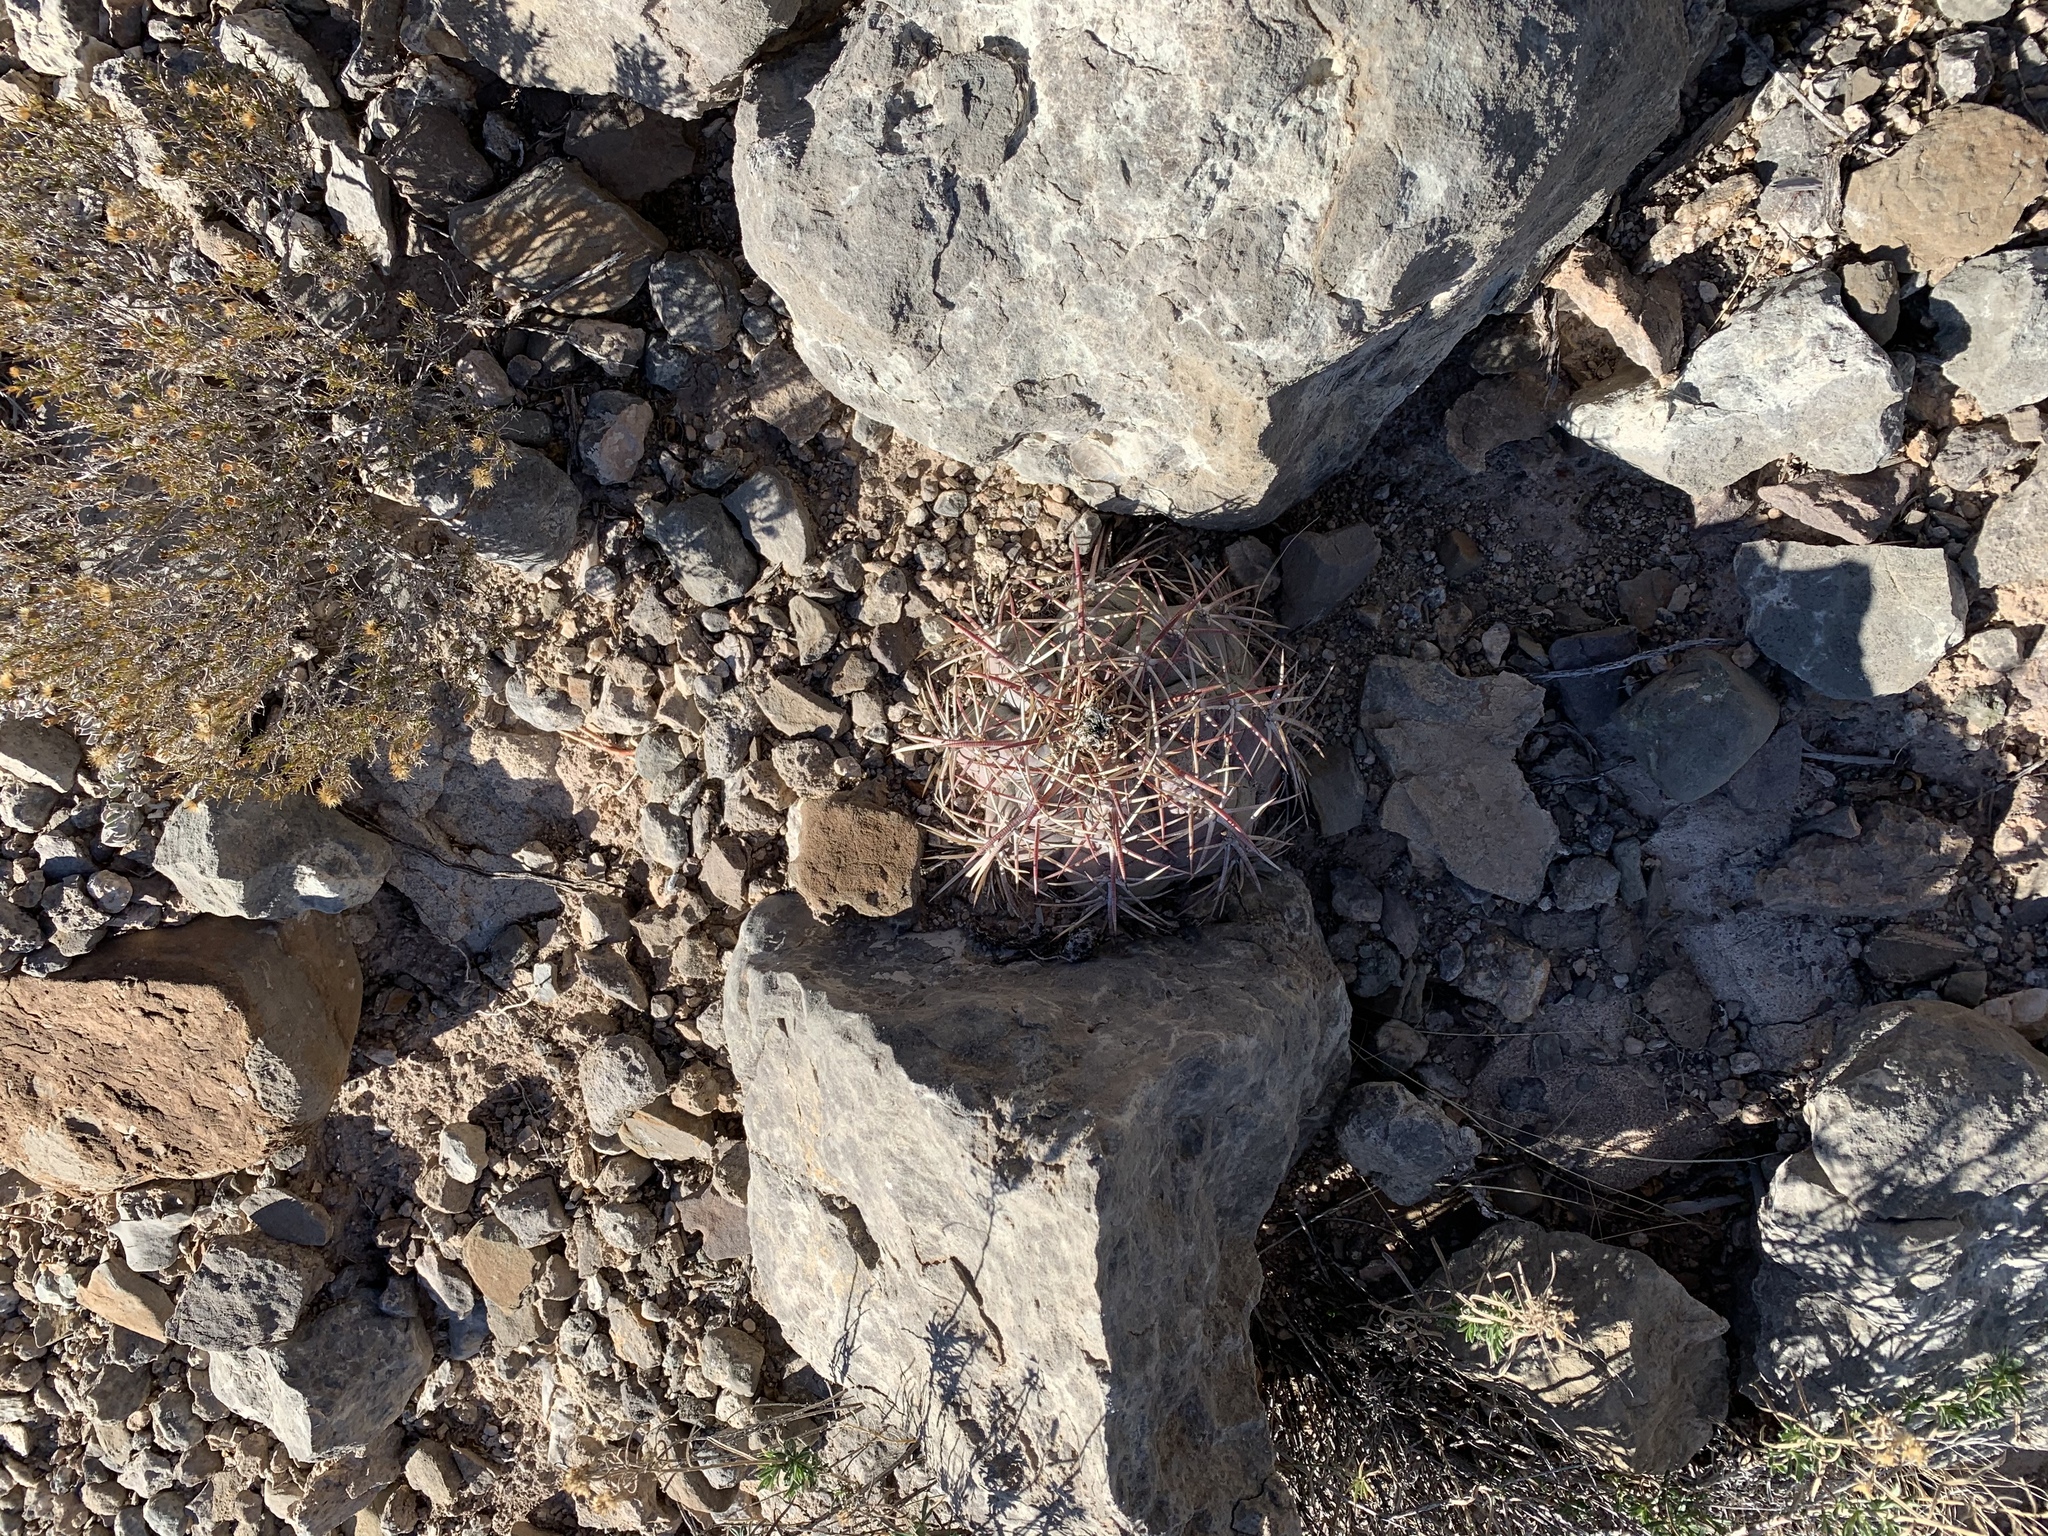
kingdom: Plantae
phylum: Tracheophyta
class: Magnoliopsida
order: Caryophyllales
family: Cactaceae
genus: Echinocactus
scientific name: Echinocactus horizonthalonius
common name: Devilshead
